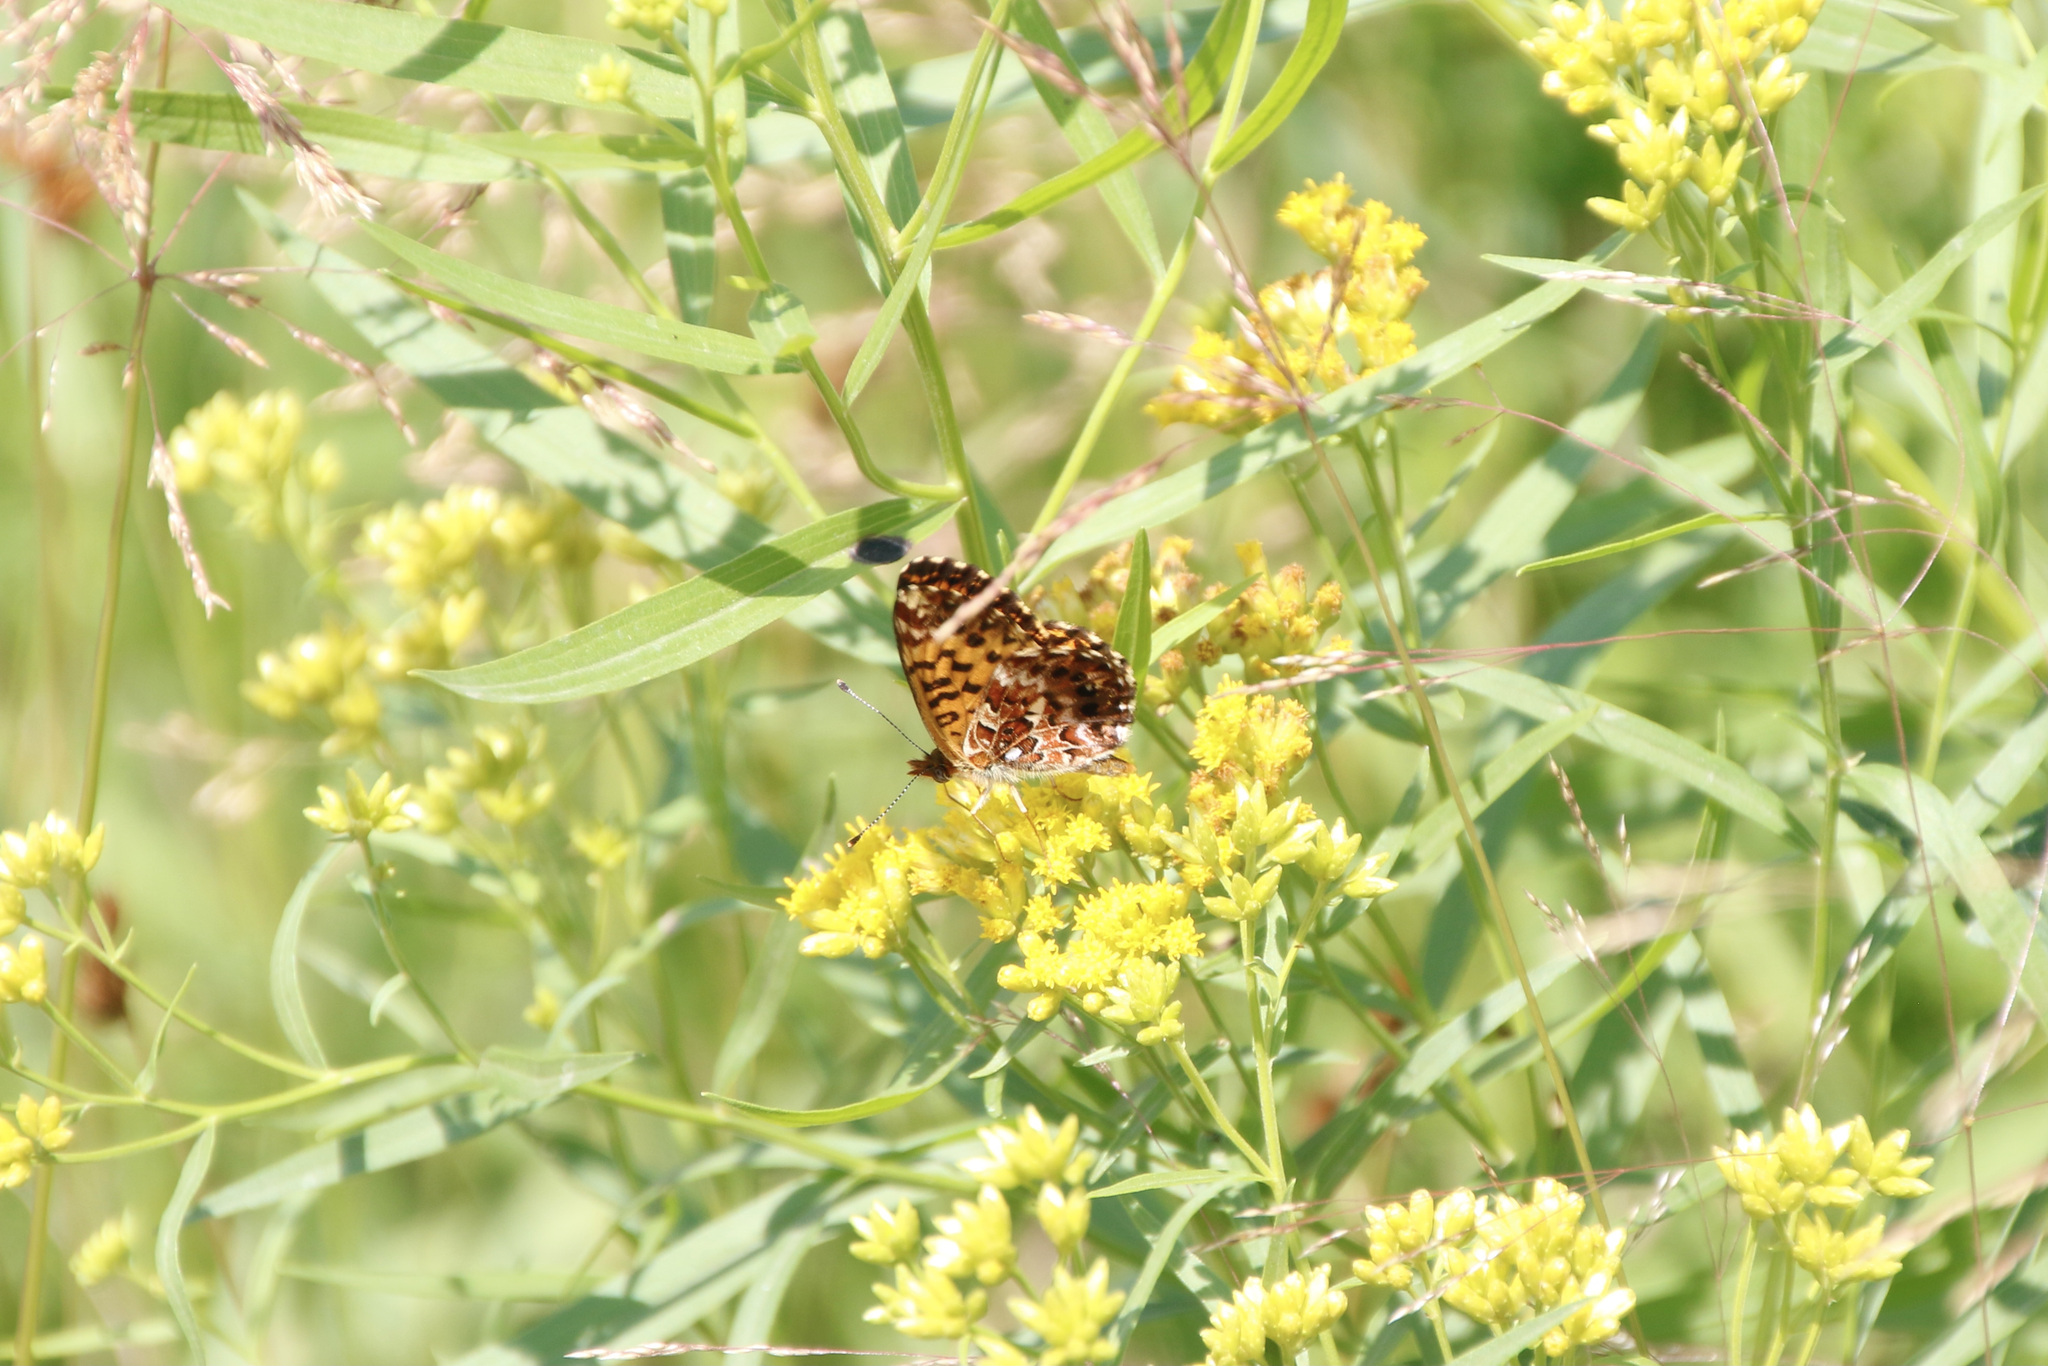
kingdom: Animalia
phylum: Arthropoda
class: Insecta
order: Lepidoptera
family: Nymphalidae
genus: Boloria
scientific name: Boloria chariclea
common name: Arctic fritillary
